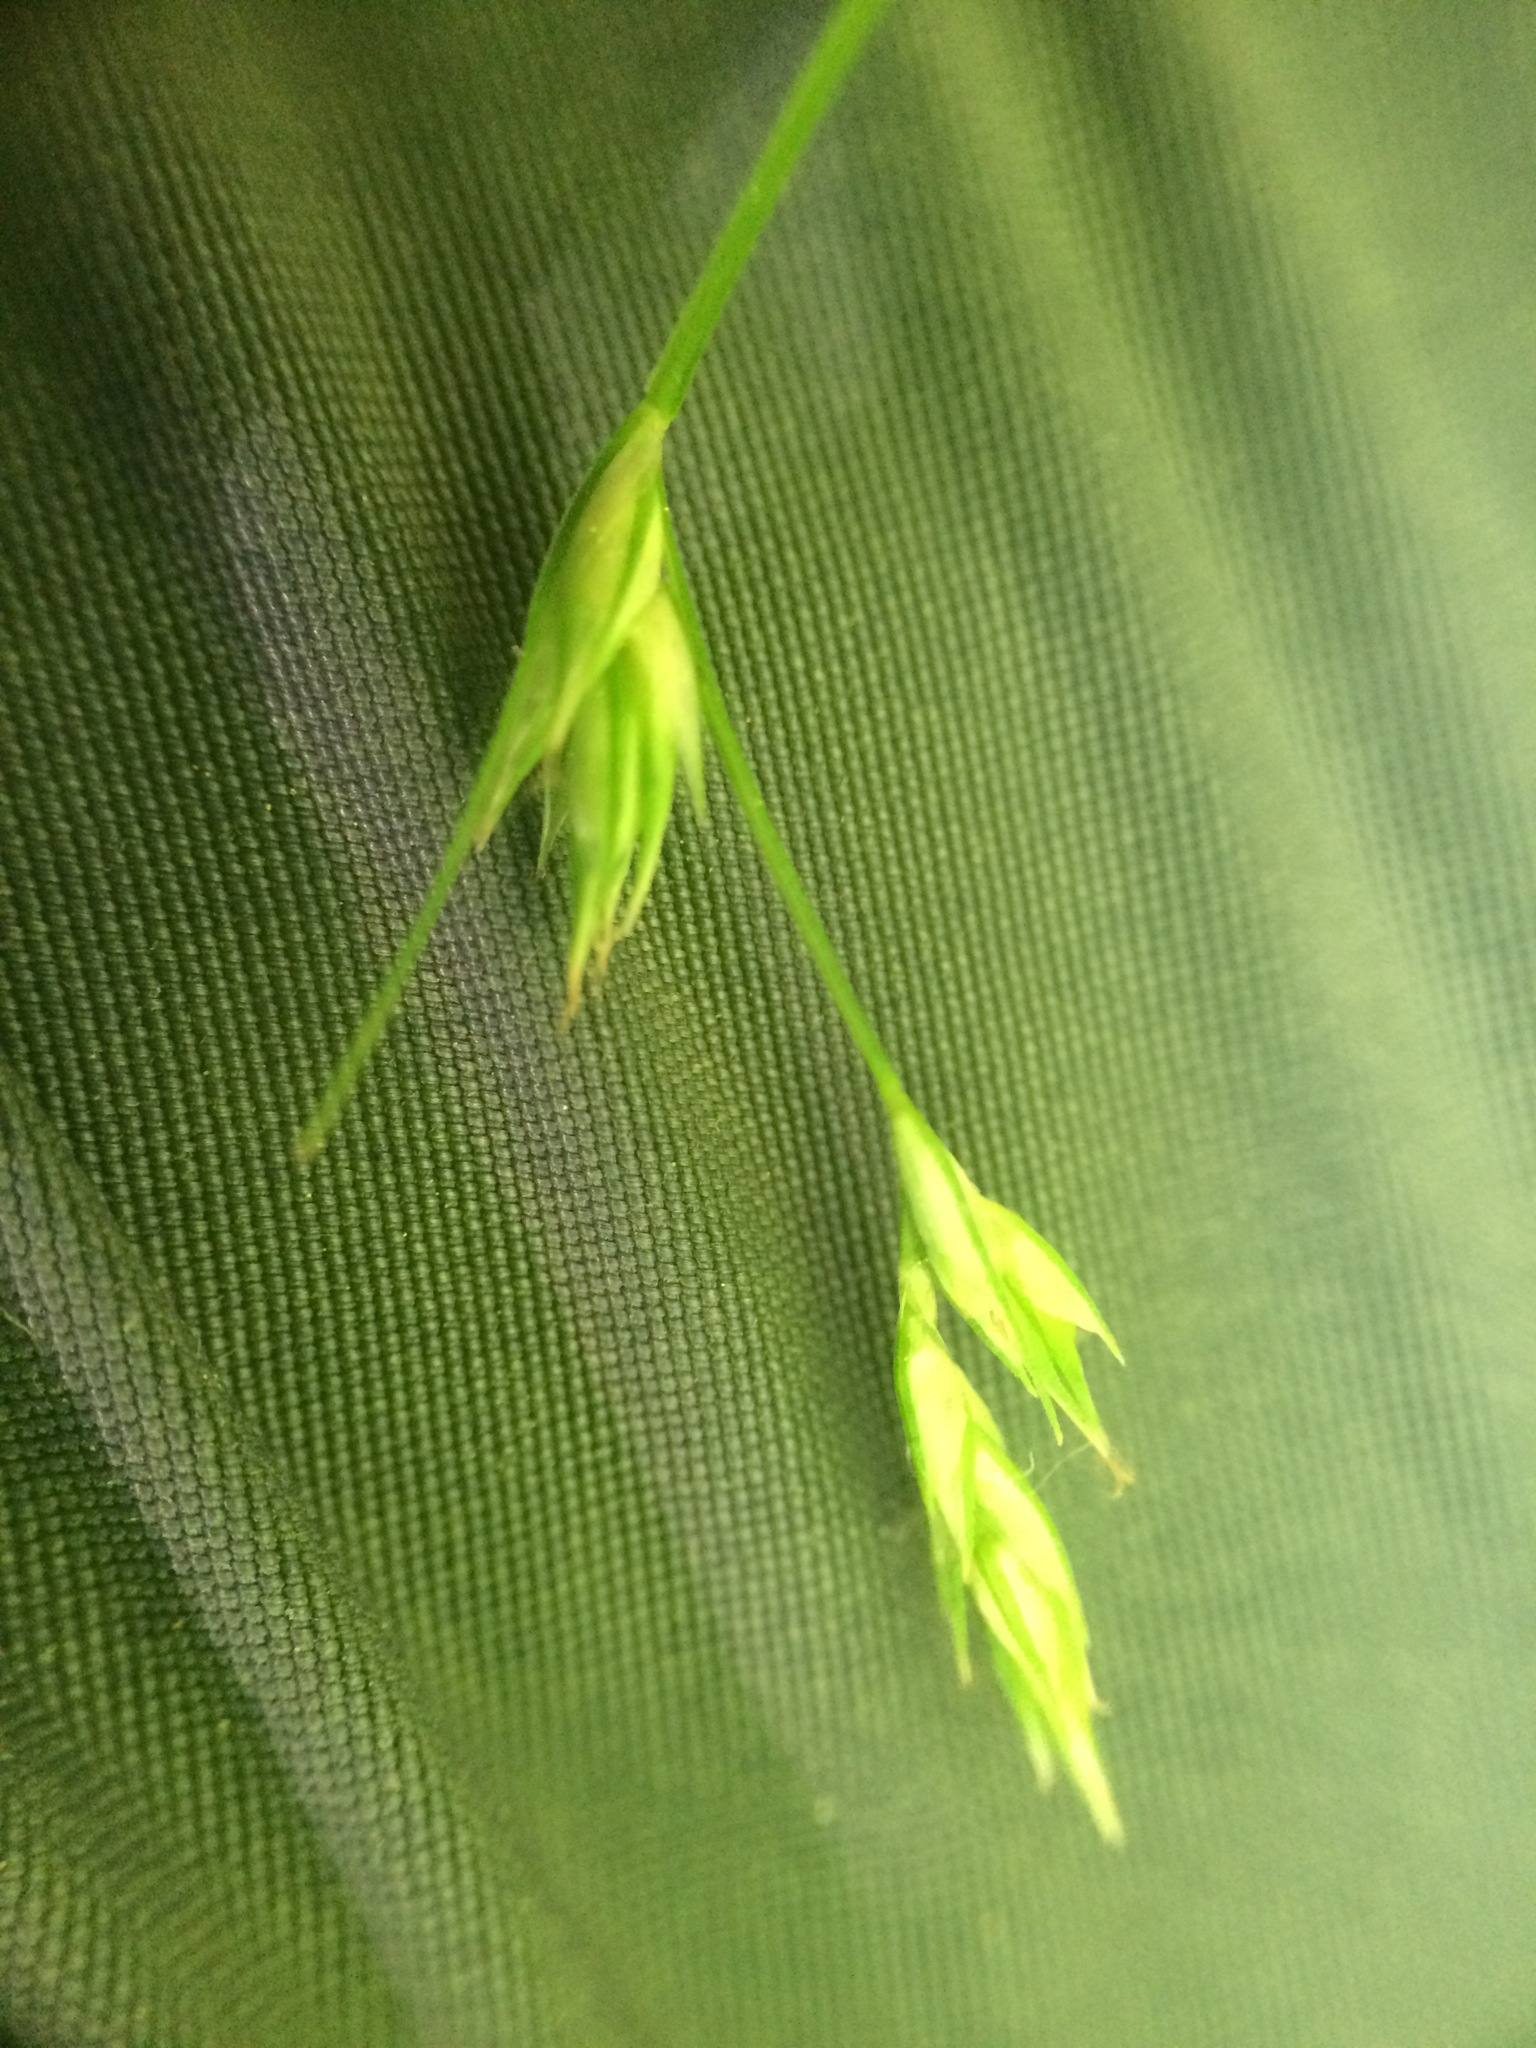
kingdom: Plantae
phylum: Tracheophyta
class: Liliopsida
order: Poales
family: Cyperaceae
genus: Carex
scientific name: Carex deweyana
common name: Dewey's sedge
